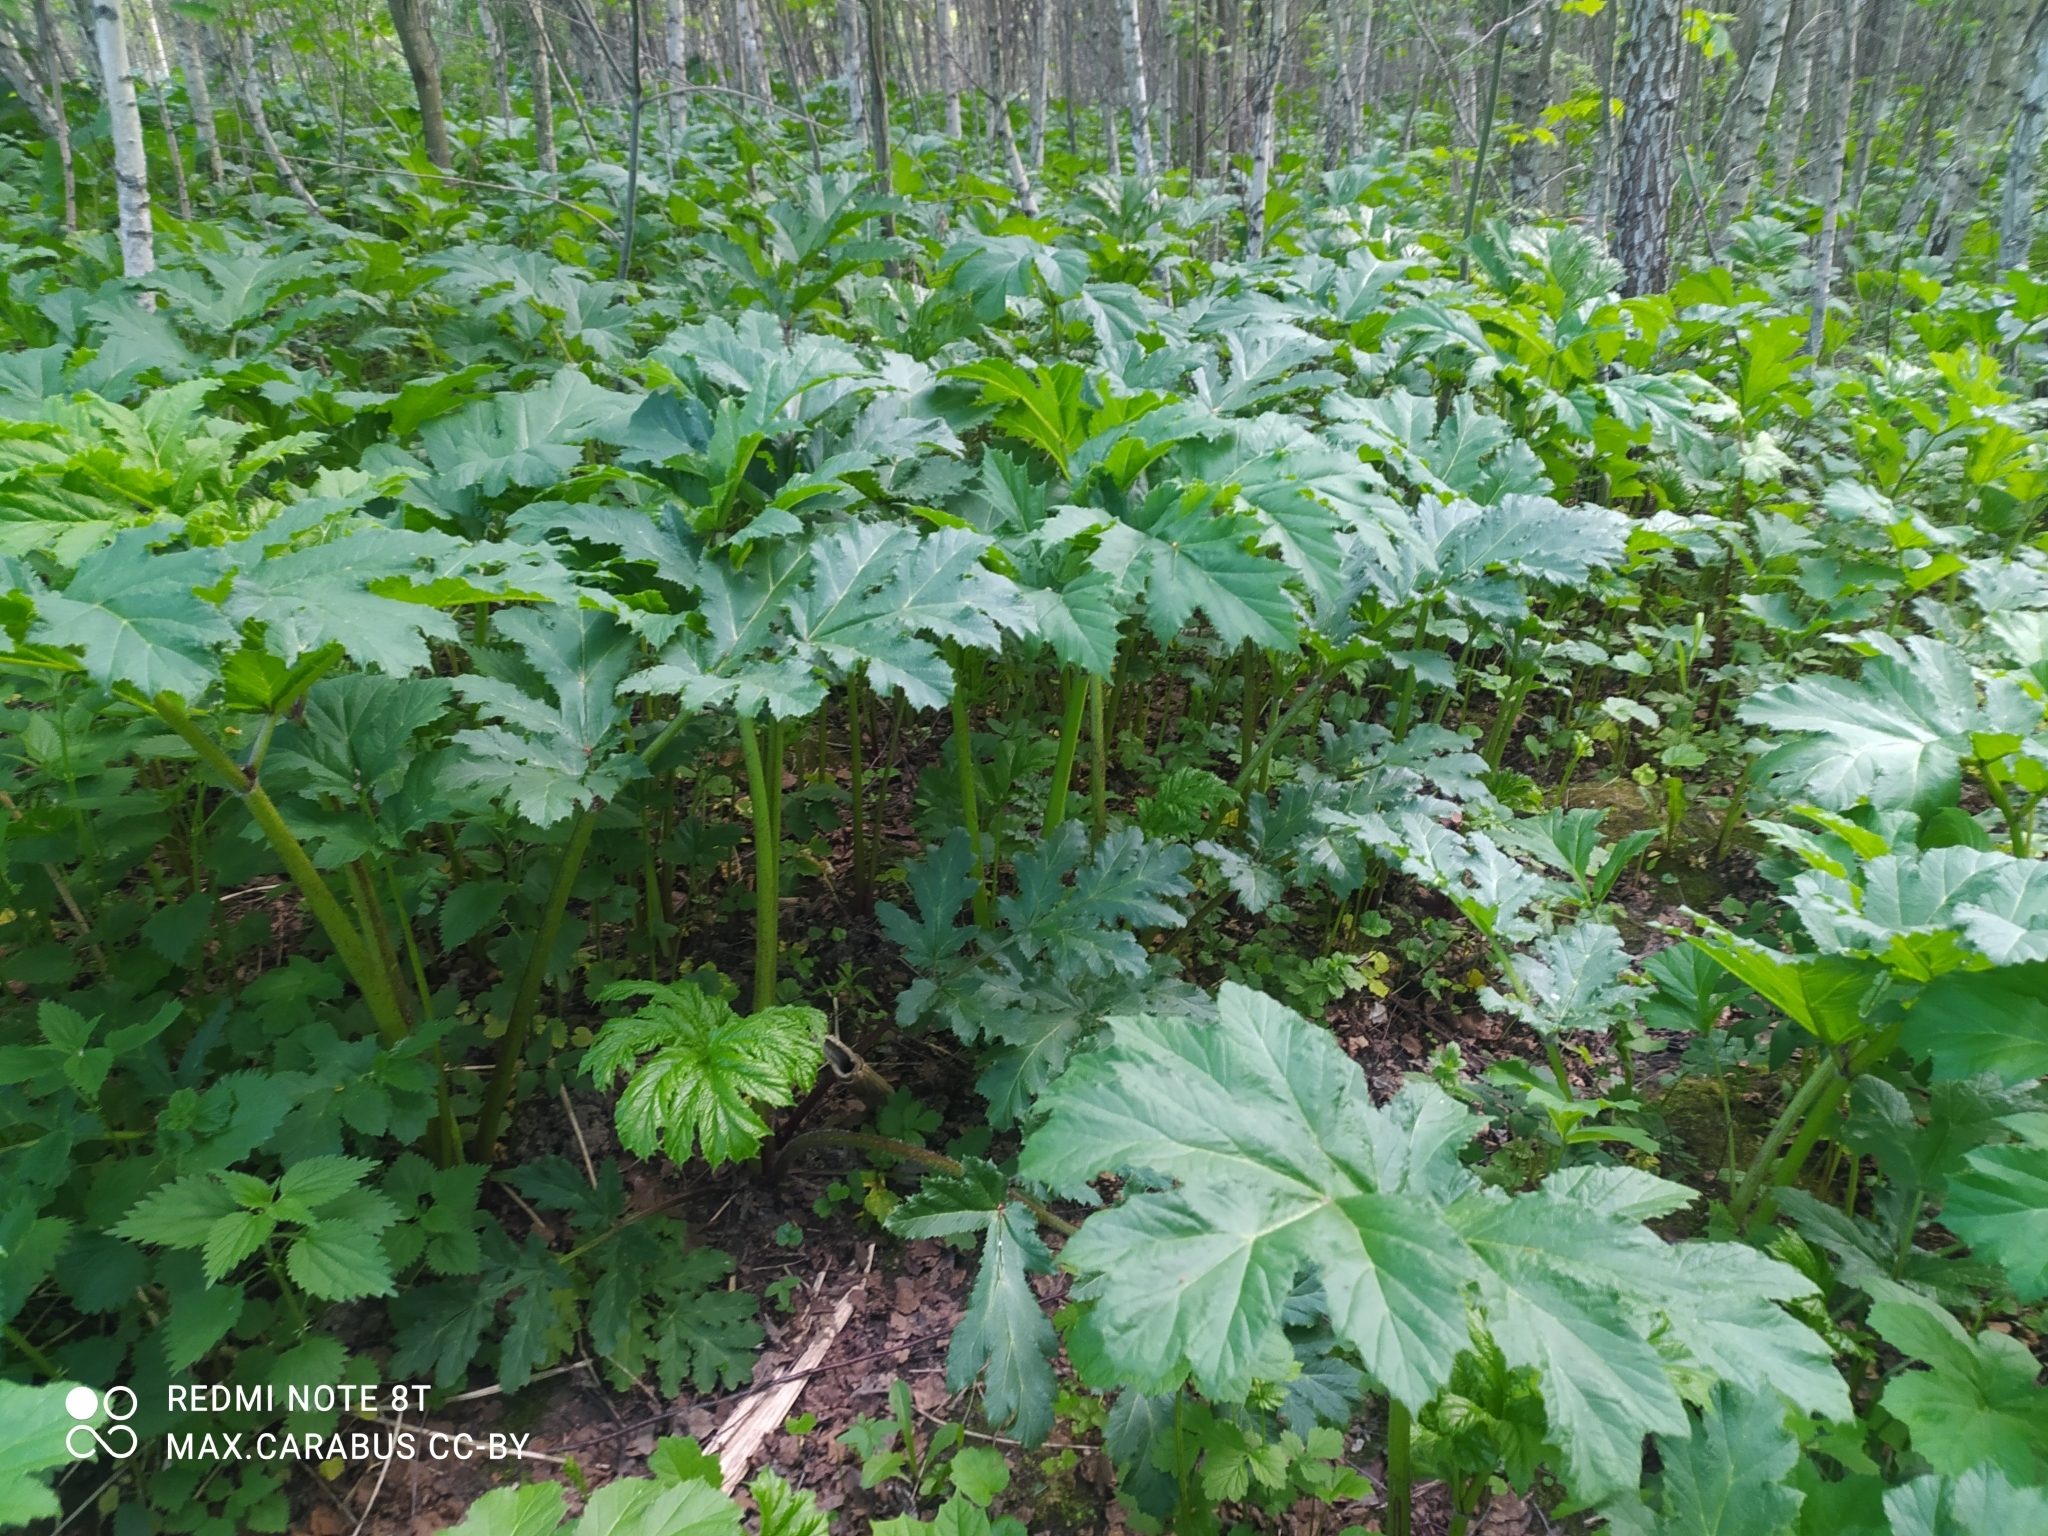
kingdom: Plantae
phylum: Tracheophyta
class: Magnoliopsida
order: Apiales
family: Apiaceae
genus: Heracleum
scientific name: Heracleum sosnowskyi
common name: Sosnowsky's hogweed
